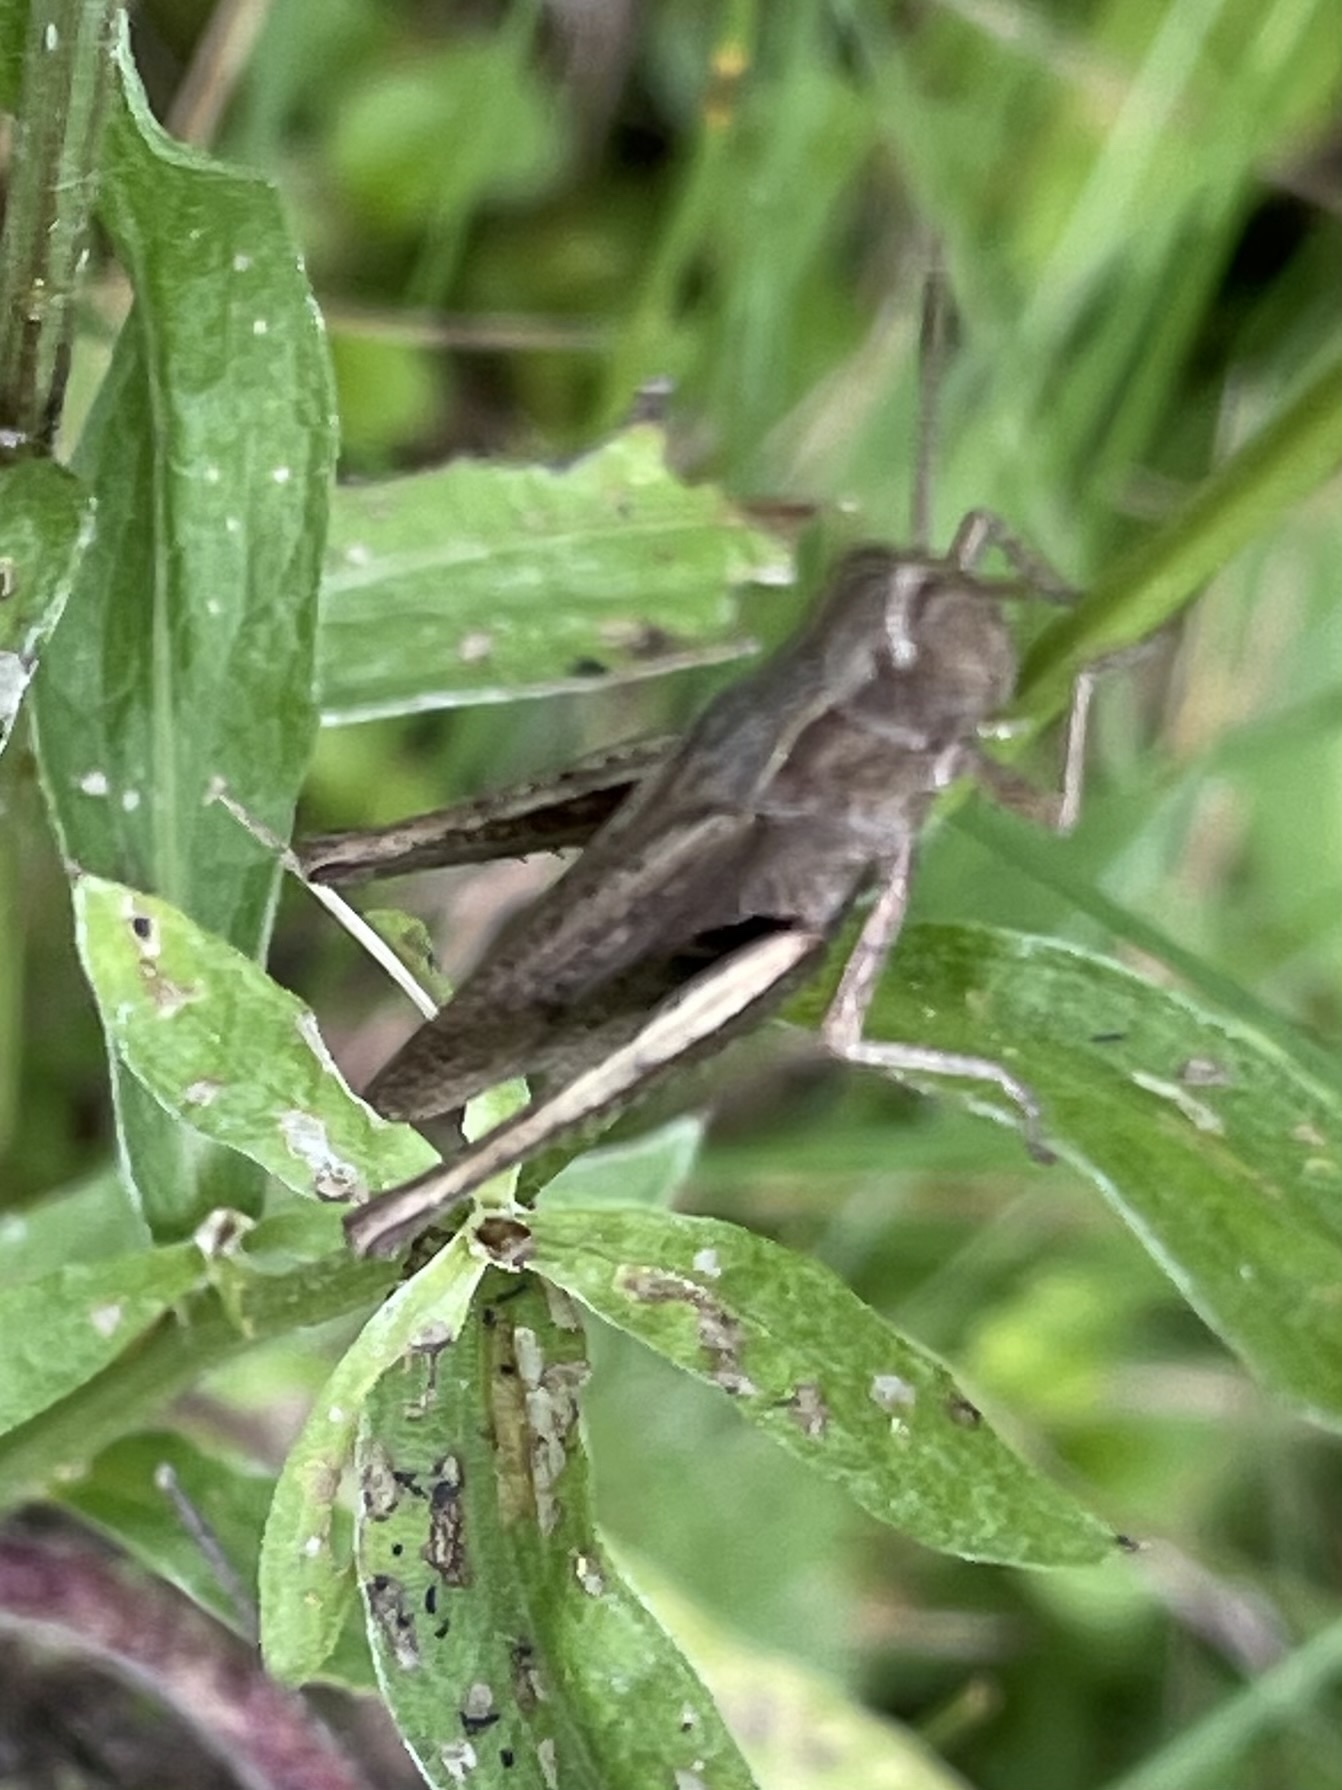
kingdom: Animalia
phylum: Arthropoda
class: Insecta
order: Orthoptera
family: Acrididae
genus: Chorthippus
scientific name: Chorthippus dorsatus
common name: Steppe grasshopper
